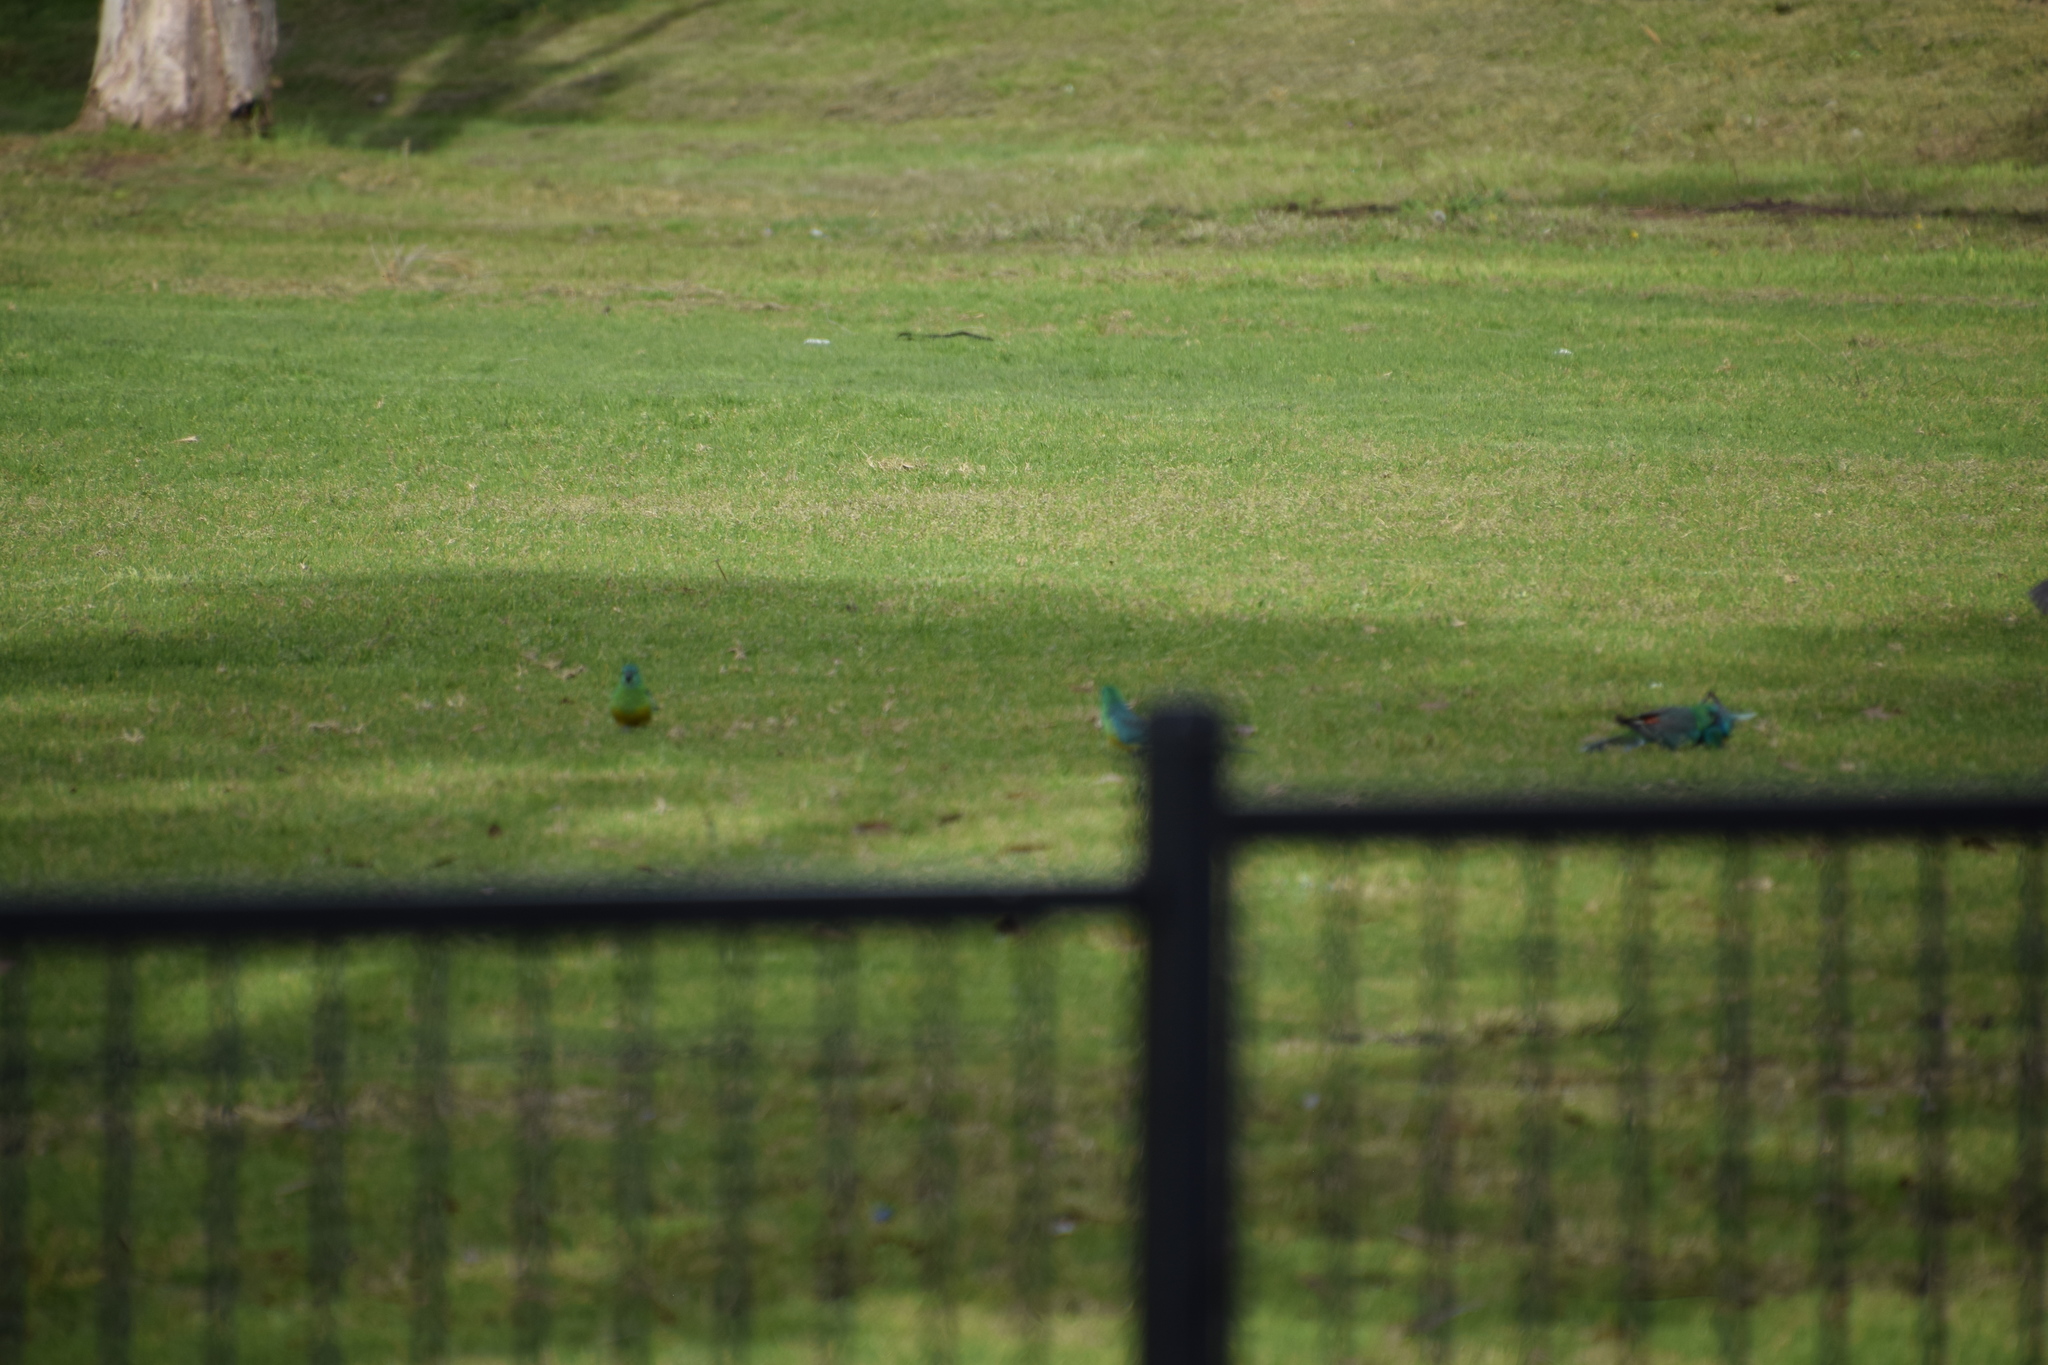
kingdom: Animalia
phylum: Chordata
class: Aves
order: Psittaciformes
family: Psittacidae
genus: Psephotus
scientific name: Psephotus haematonotus
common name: Red-rumped parrot
